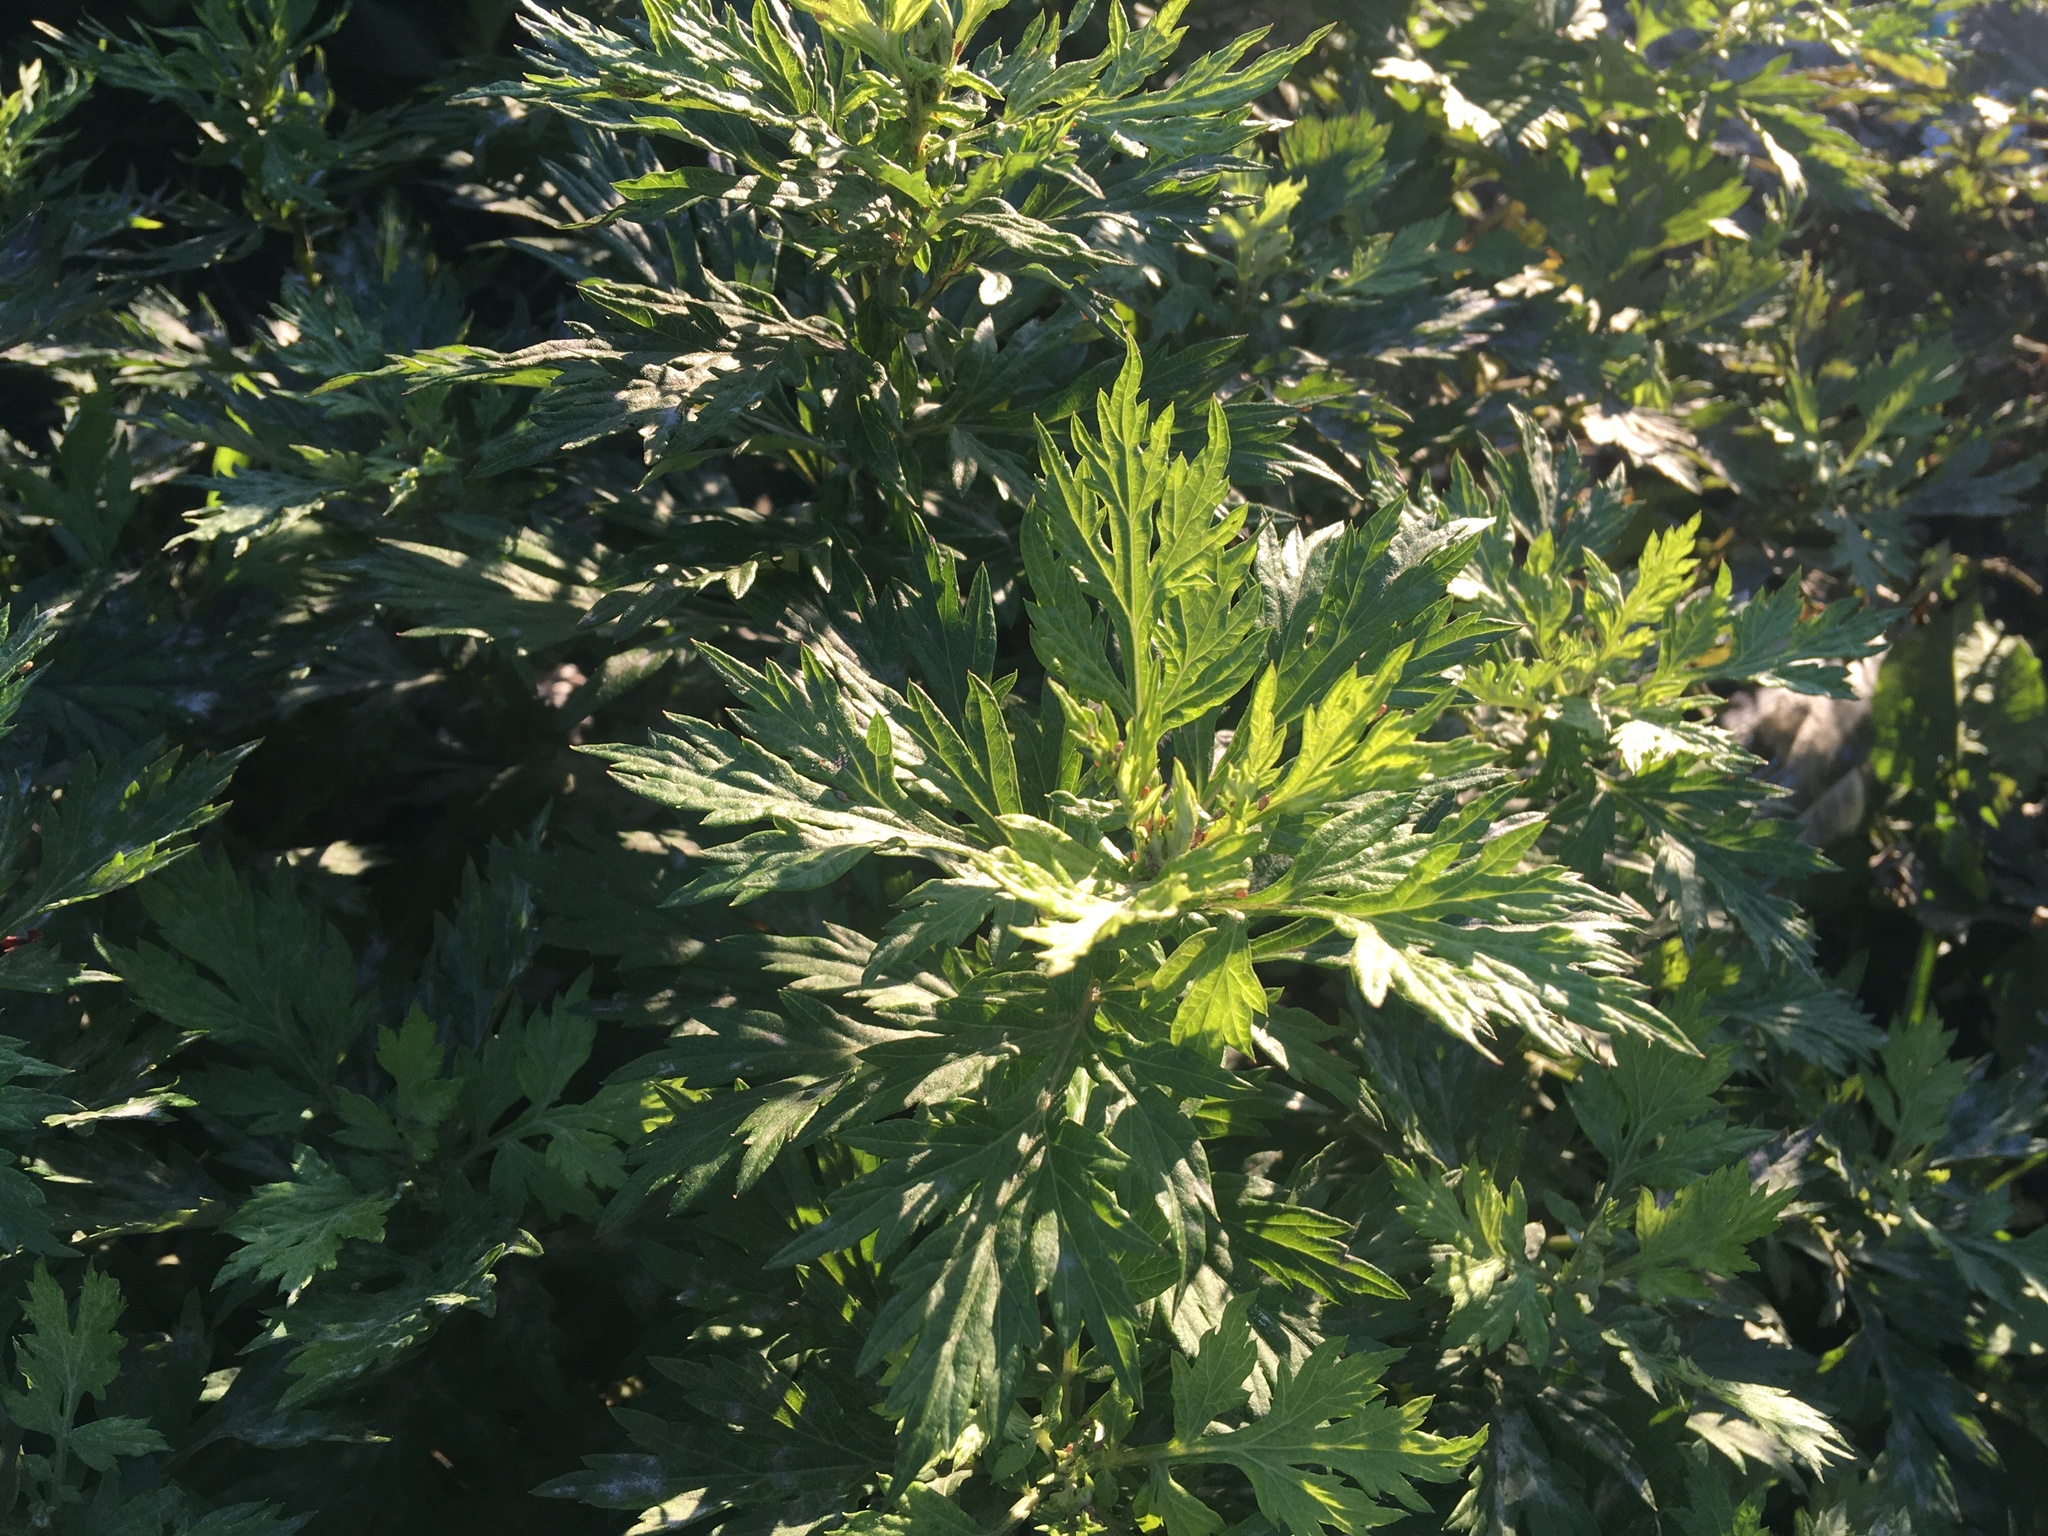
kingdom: Plantae
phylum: Tracheophyta
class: Magnoliopsida
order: Asterales
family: Asteraceae
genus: Artemisia
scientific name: Artemisia vulgaris
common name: Mugwort
